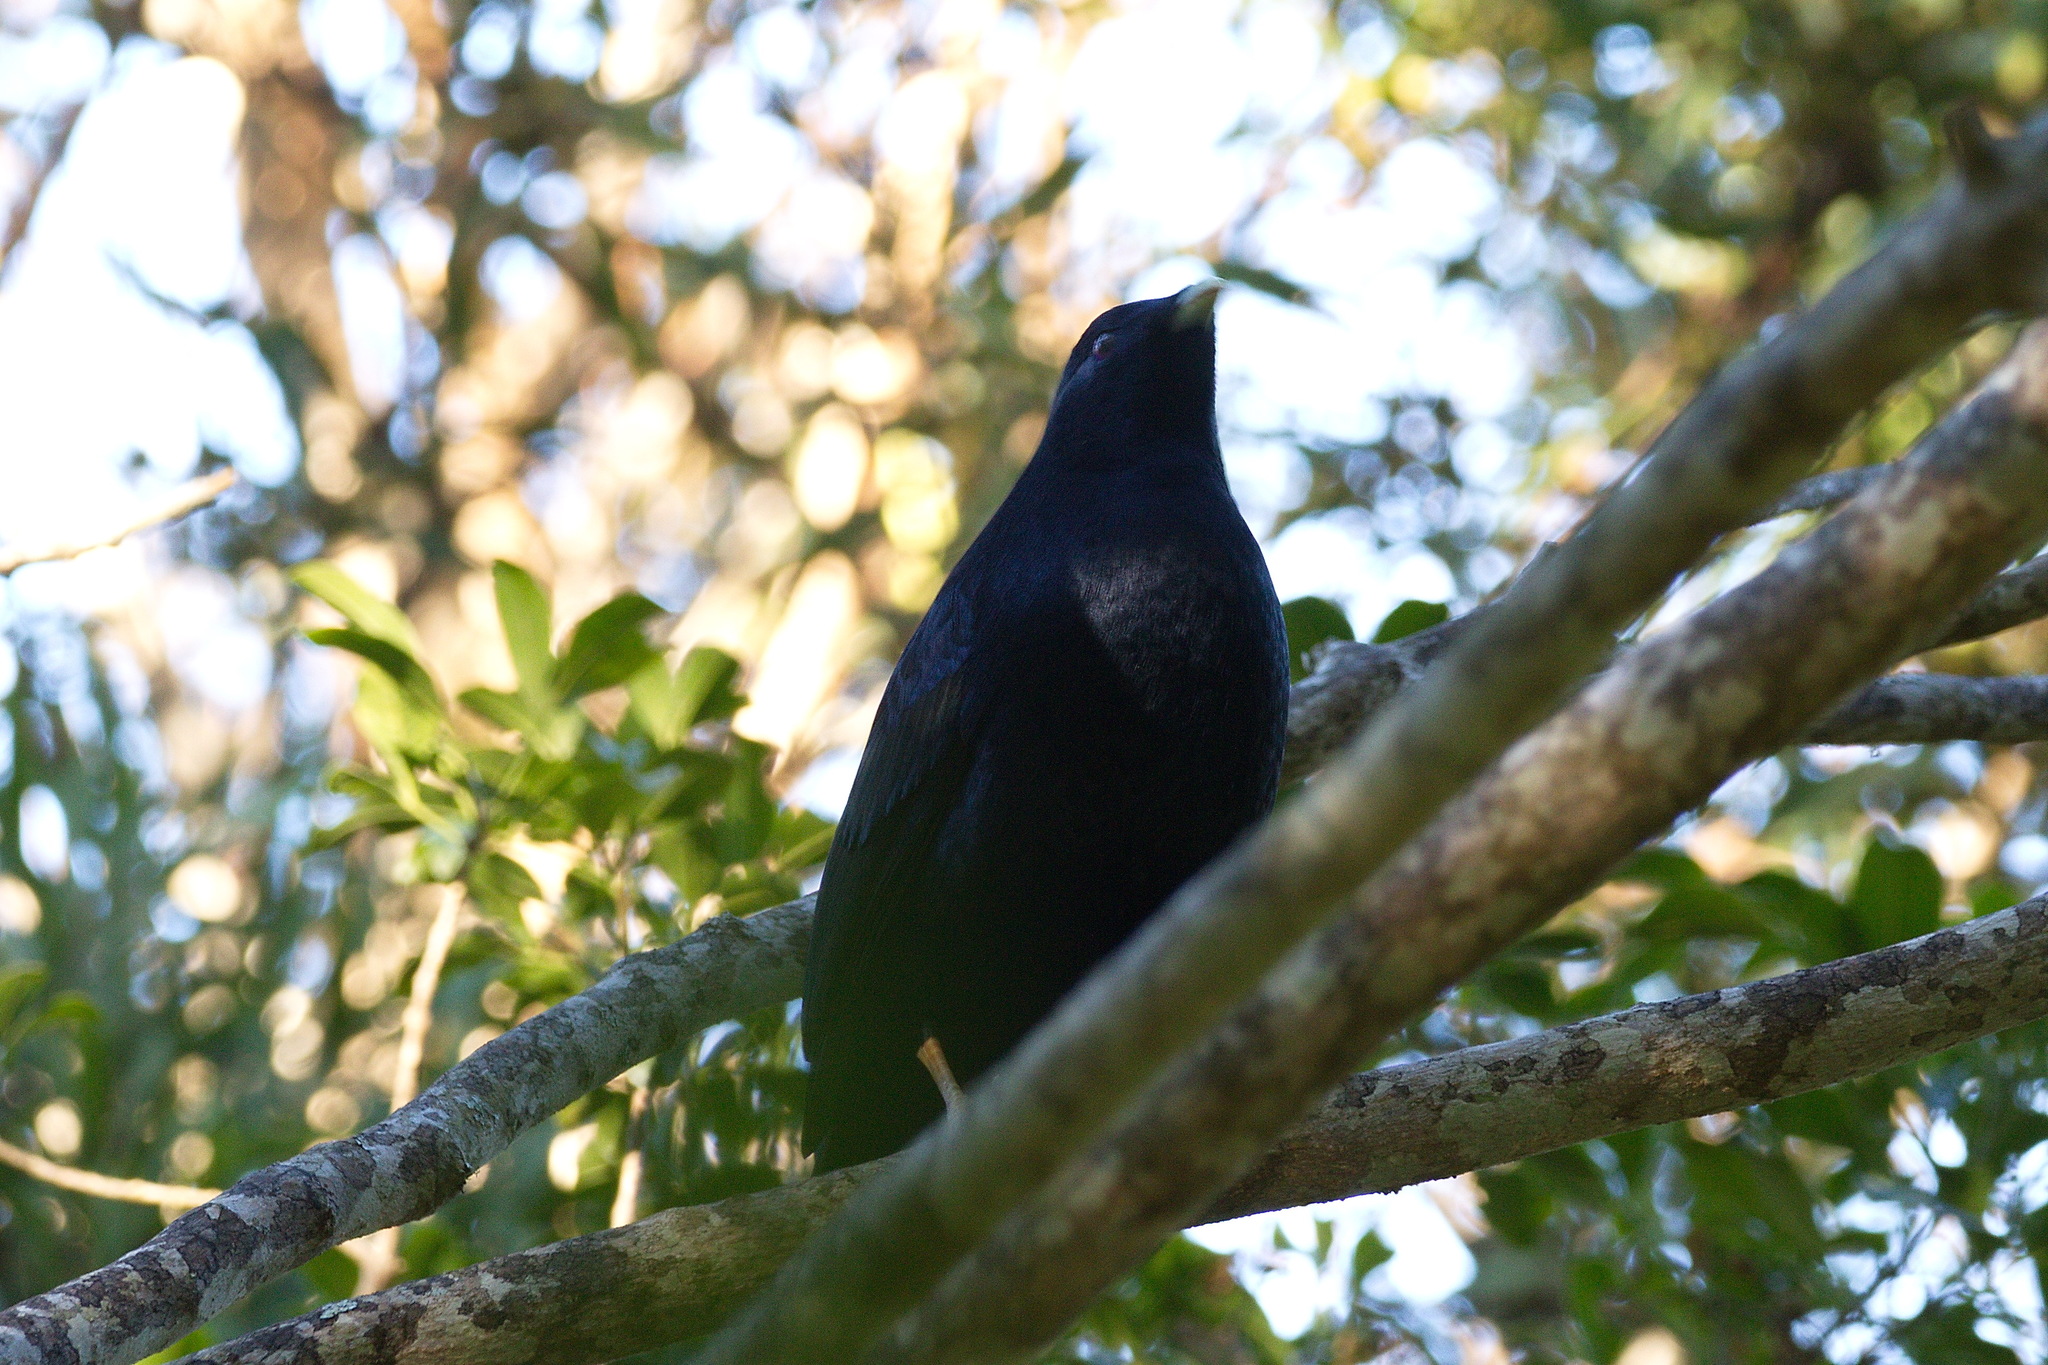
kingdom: Animalia
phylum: Chordata
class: Aves
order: Passeriformes
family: Ptilonorhynchidae
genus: Ptilonorhynchus
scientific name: Ptilonorhynchus violaceus
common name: Satin bowerbird
